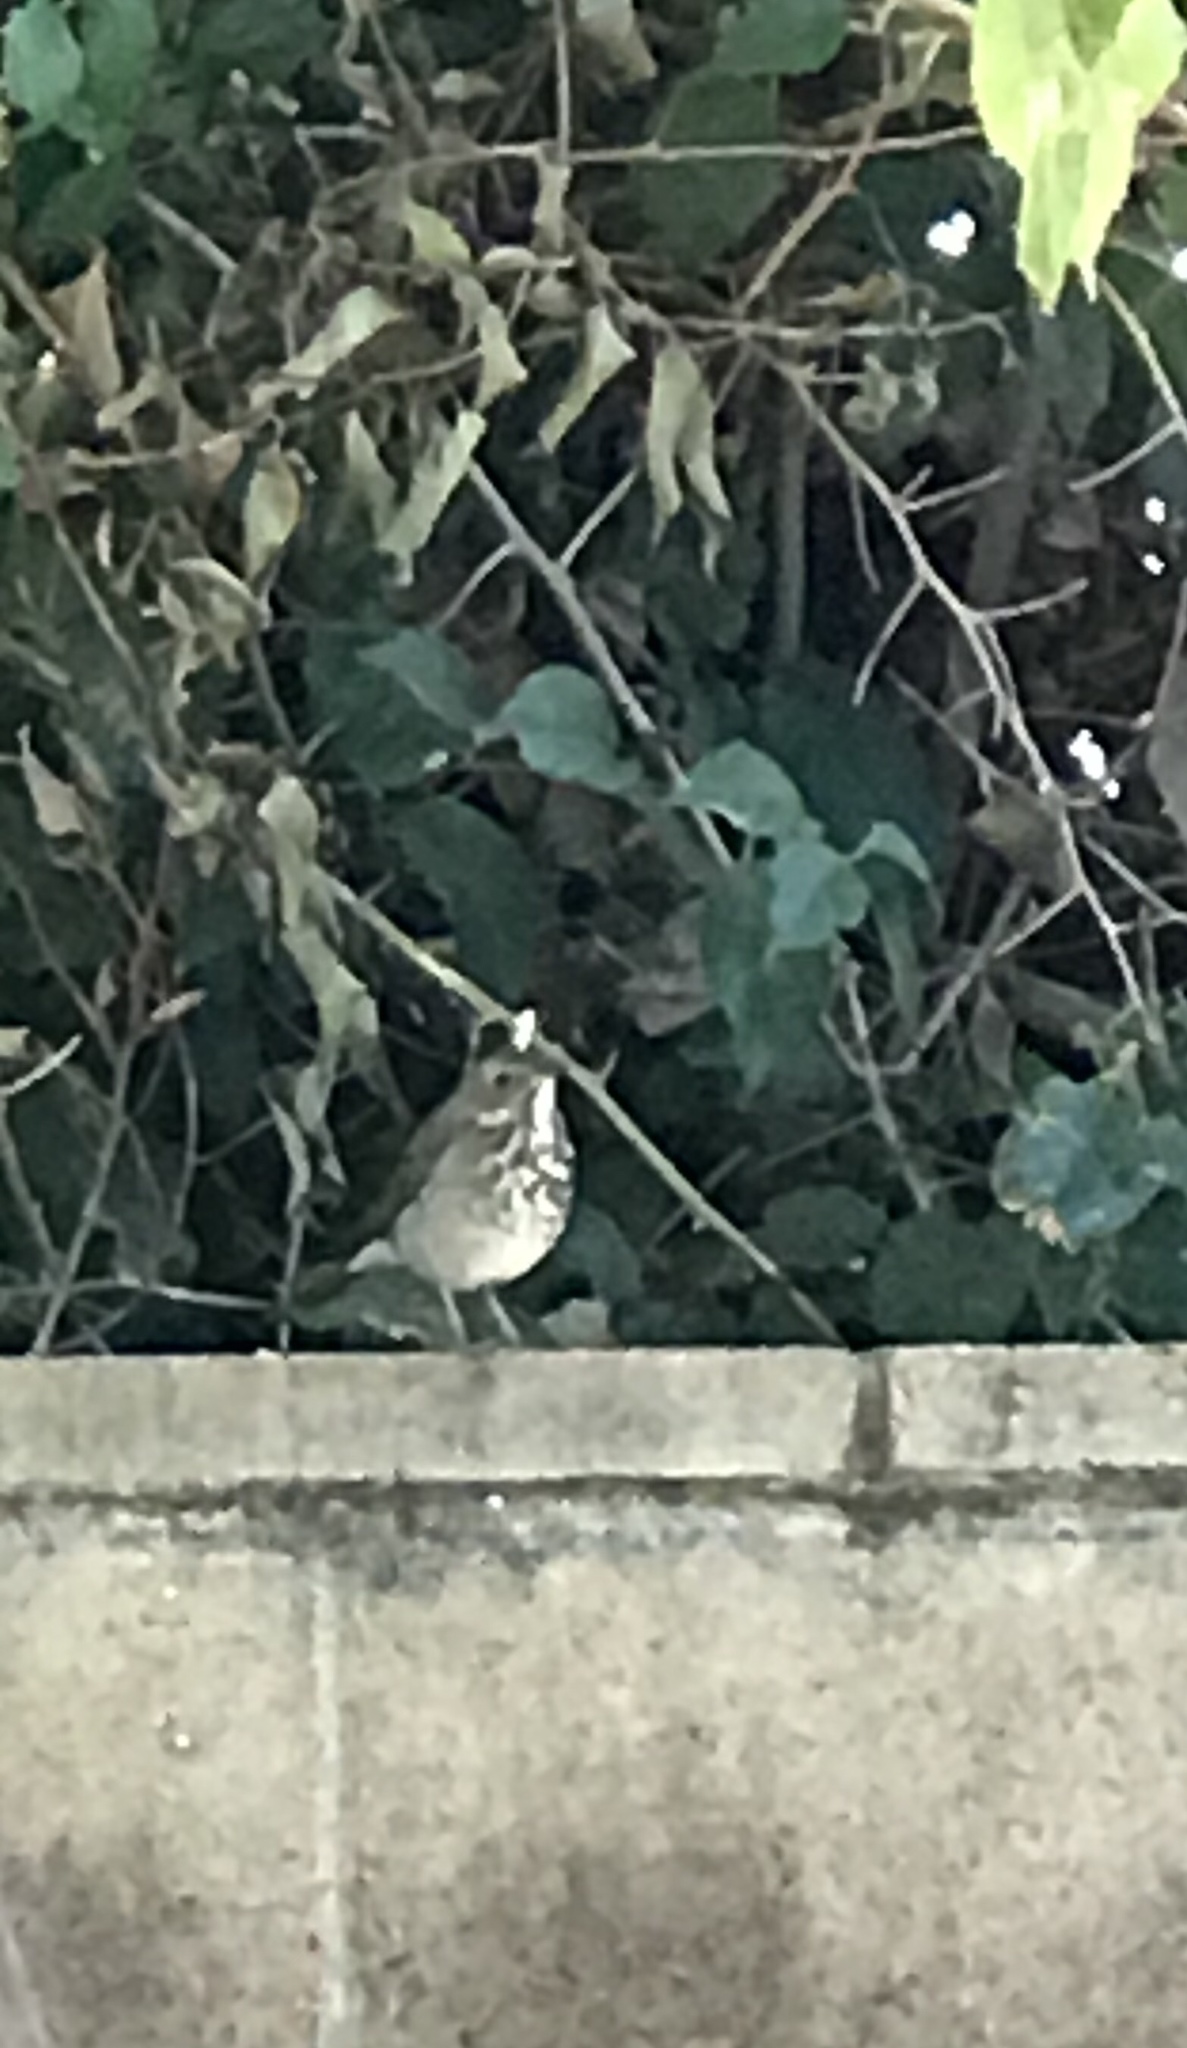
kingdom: Animalia
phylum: Chordata
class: Aves
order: Passeriformes
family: Turdidae
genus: Catharus
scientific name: Catharus guttatus
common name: Hermit thrush
